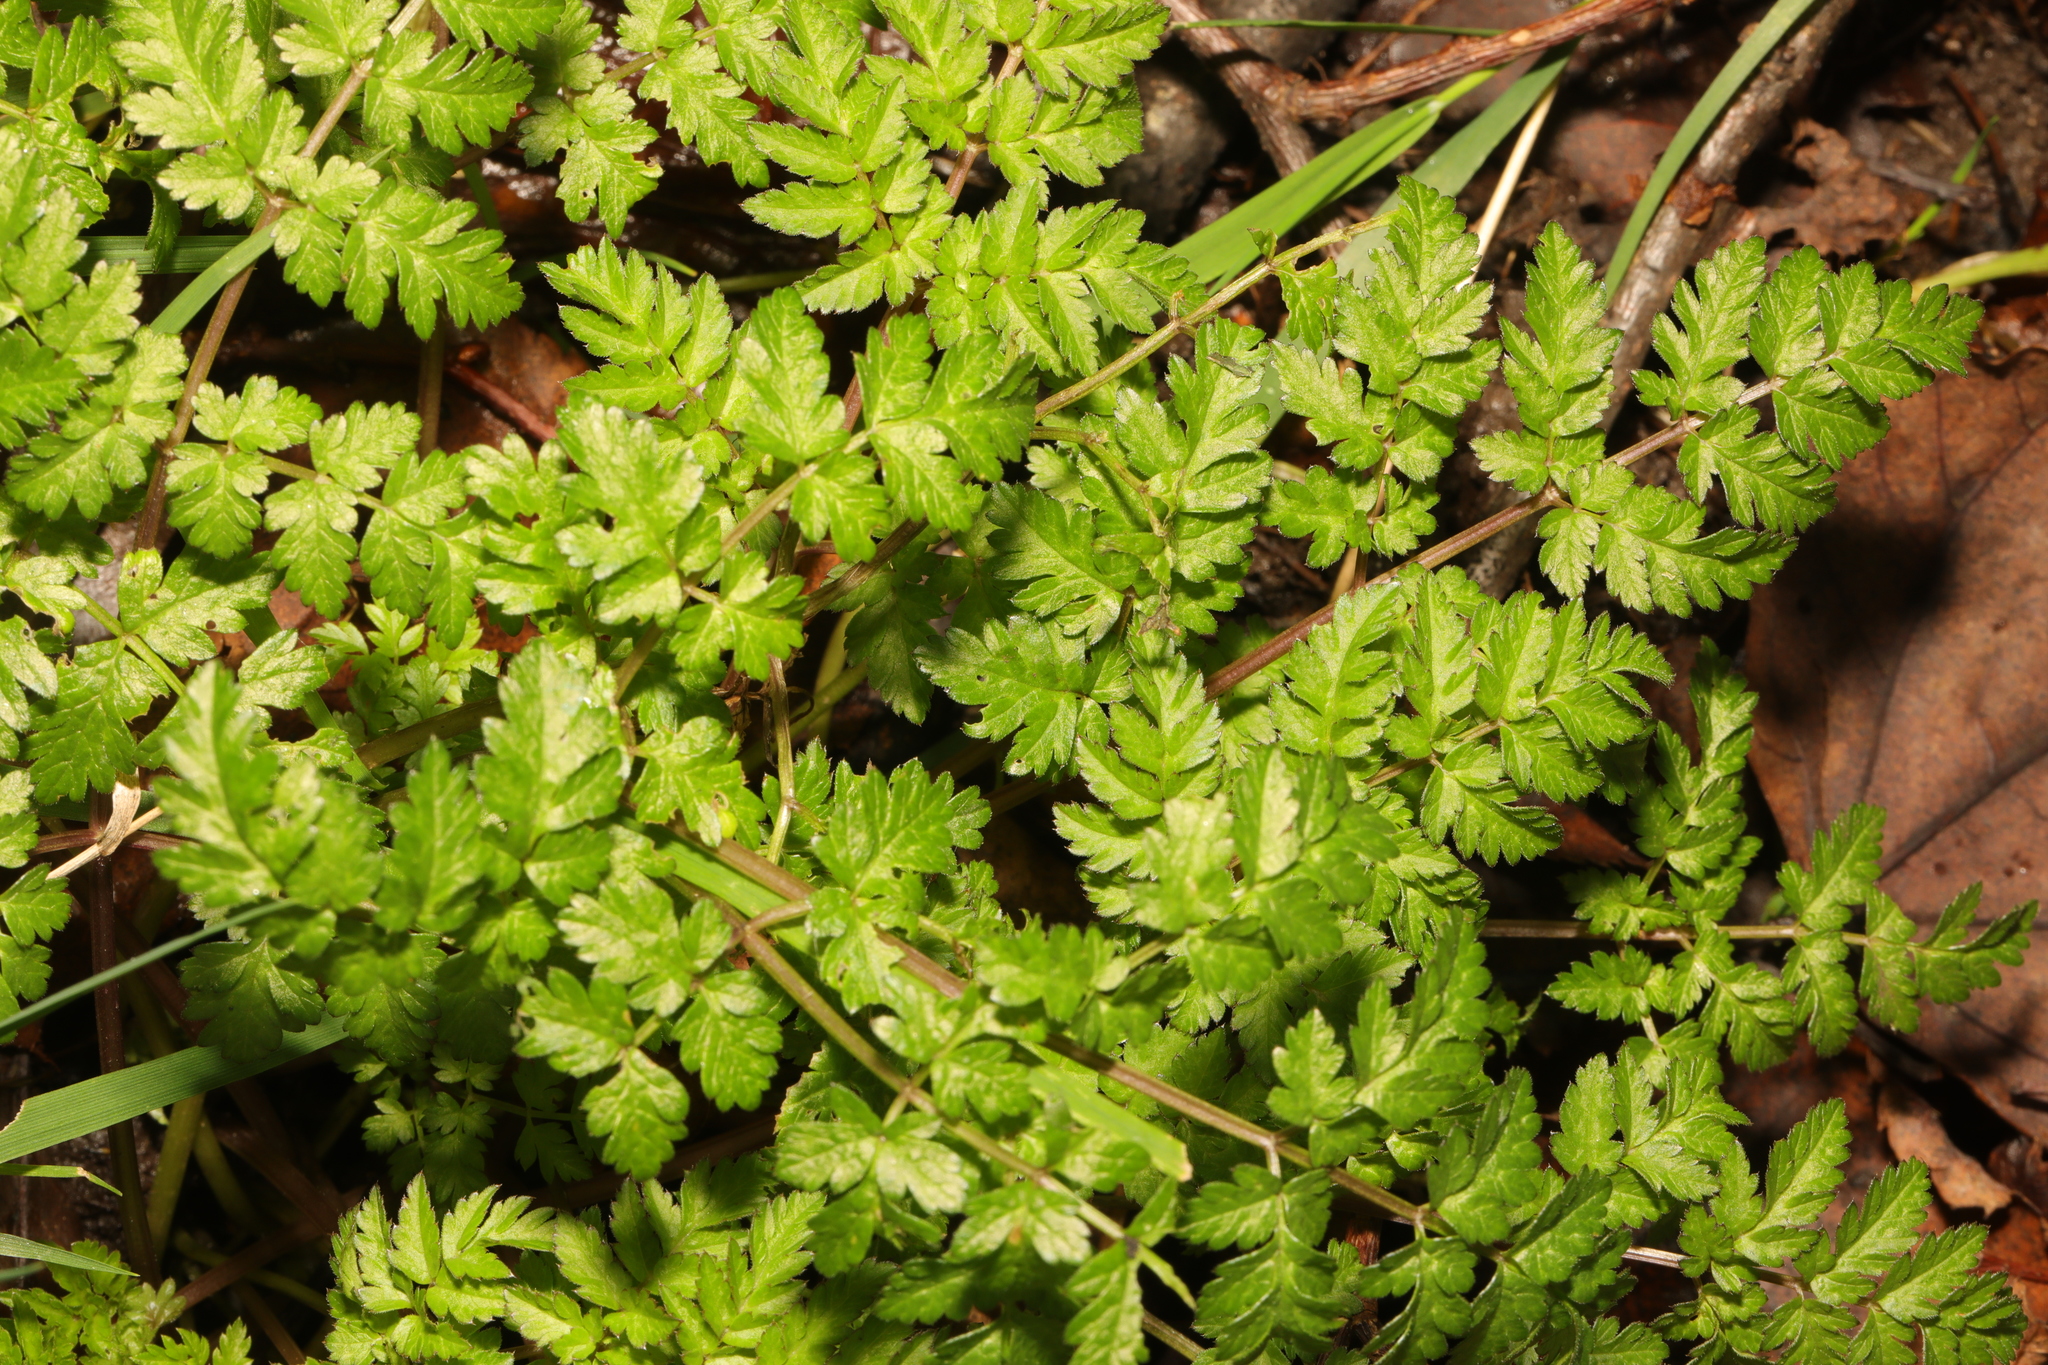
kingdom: Plantae
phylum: Tracheophyta
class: Magnoliopsida
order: Apiales
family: Apiaceae
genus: Anthriscus
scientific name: Anthriscus sylvestris
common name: Cow parsley
